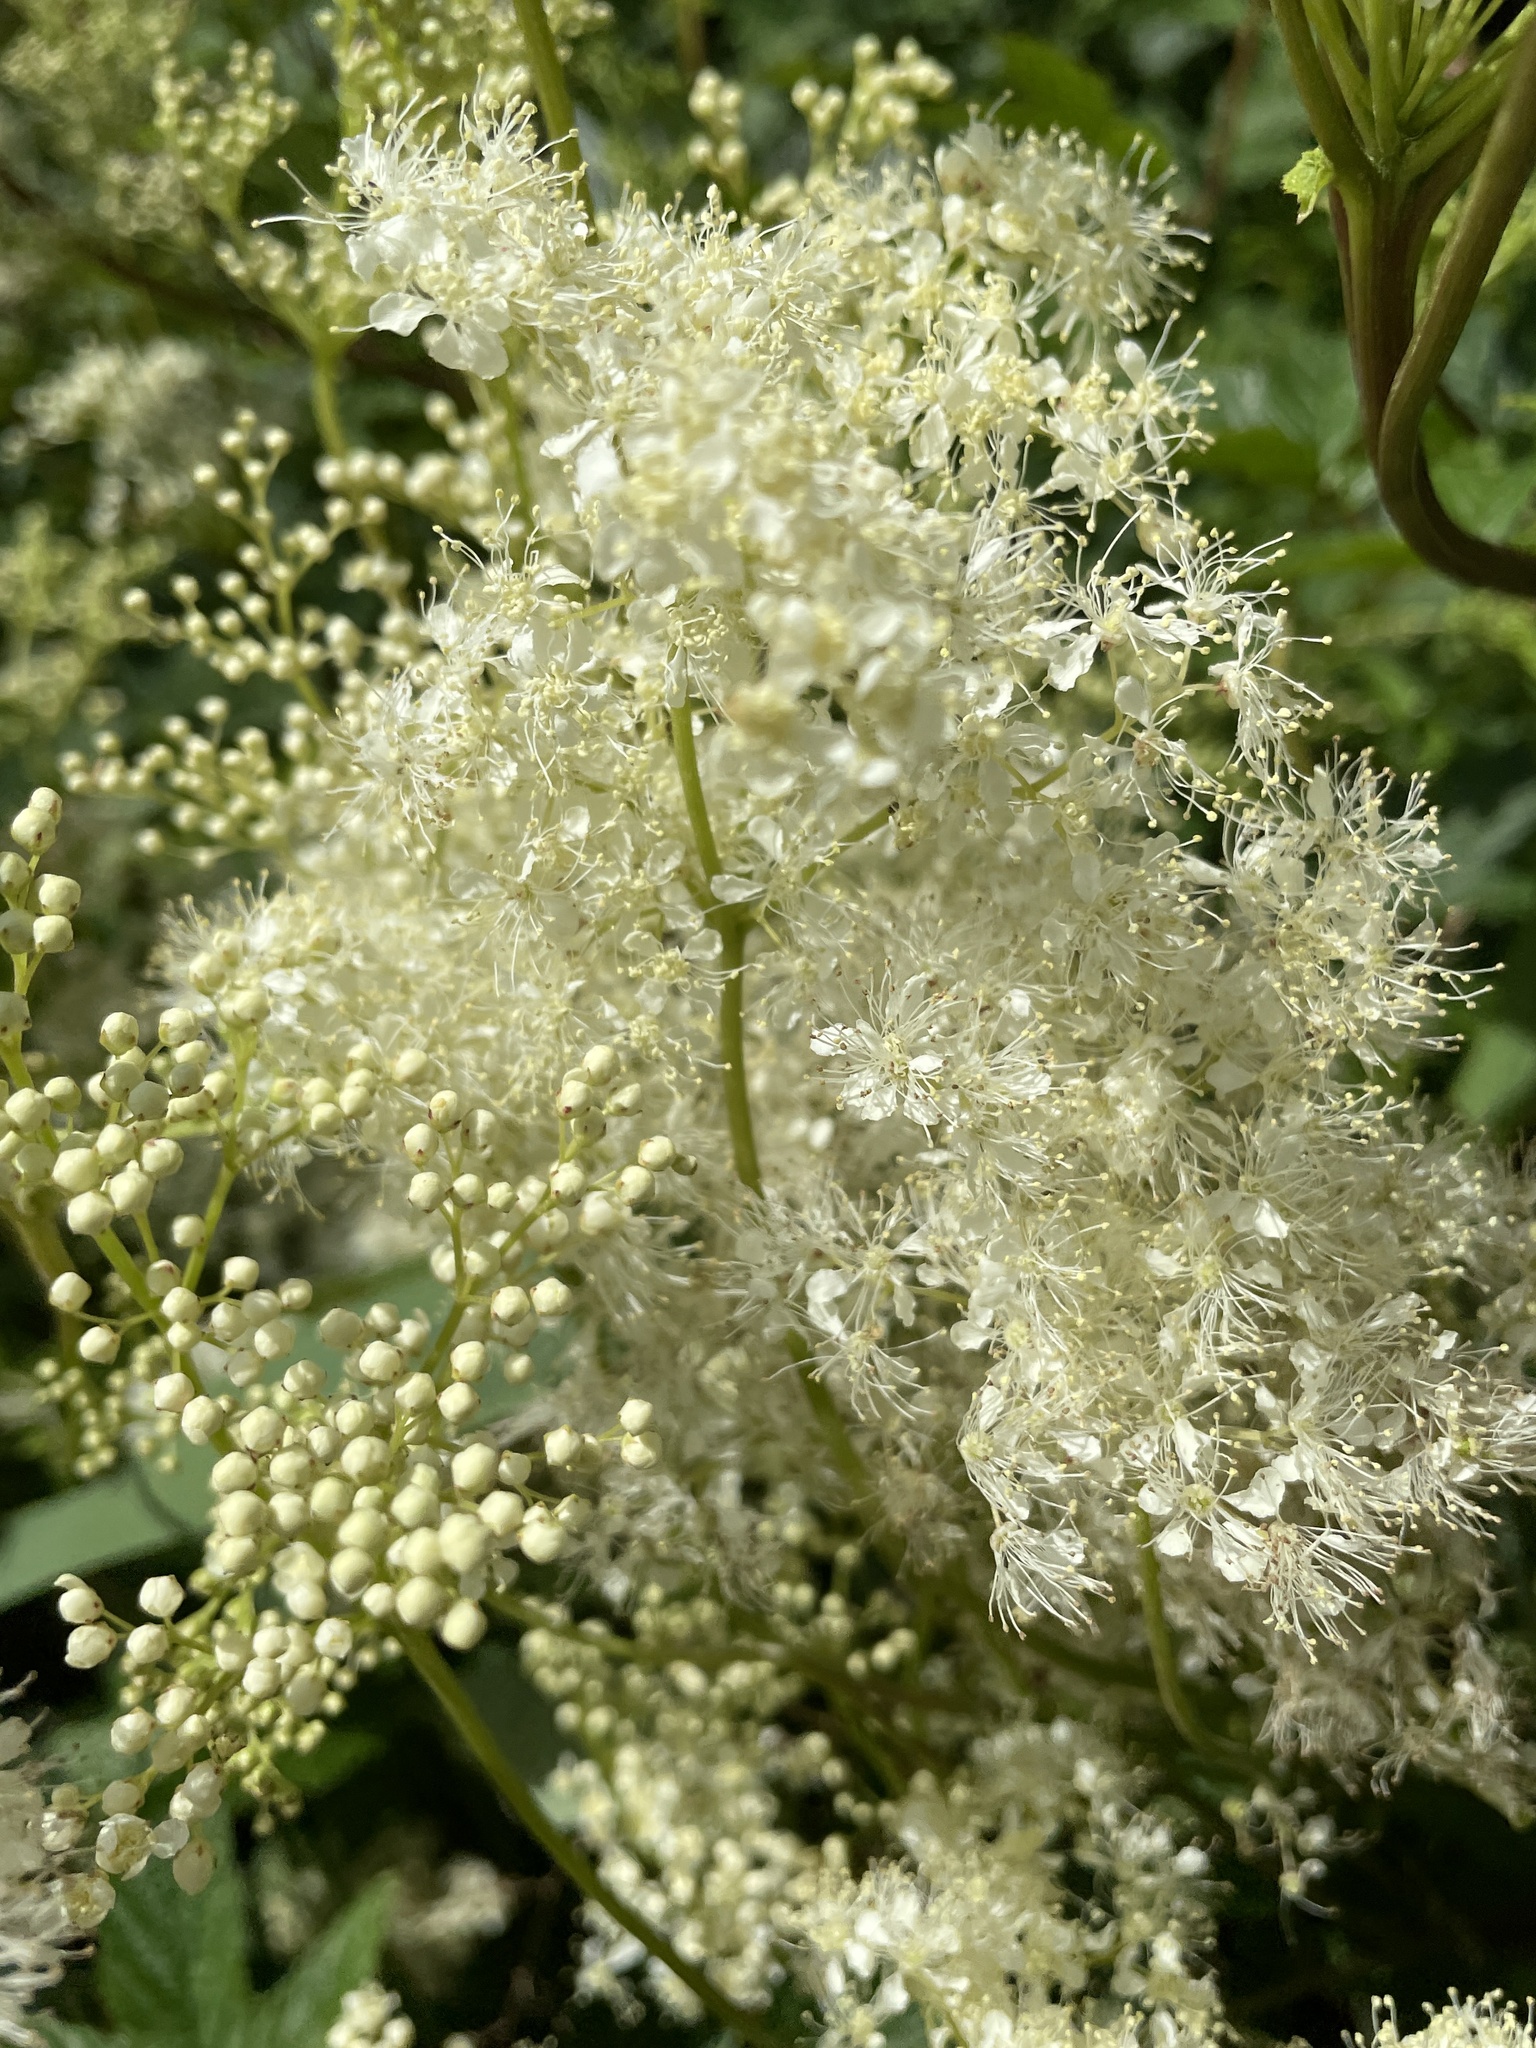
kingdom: Plantae
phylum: Tracheophyta
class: Magnoliopsida
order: Rosales
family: Rosaceae
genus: Filipendula
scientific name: Filipendula ulmaria
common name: Meadowsweet
